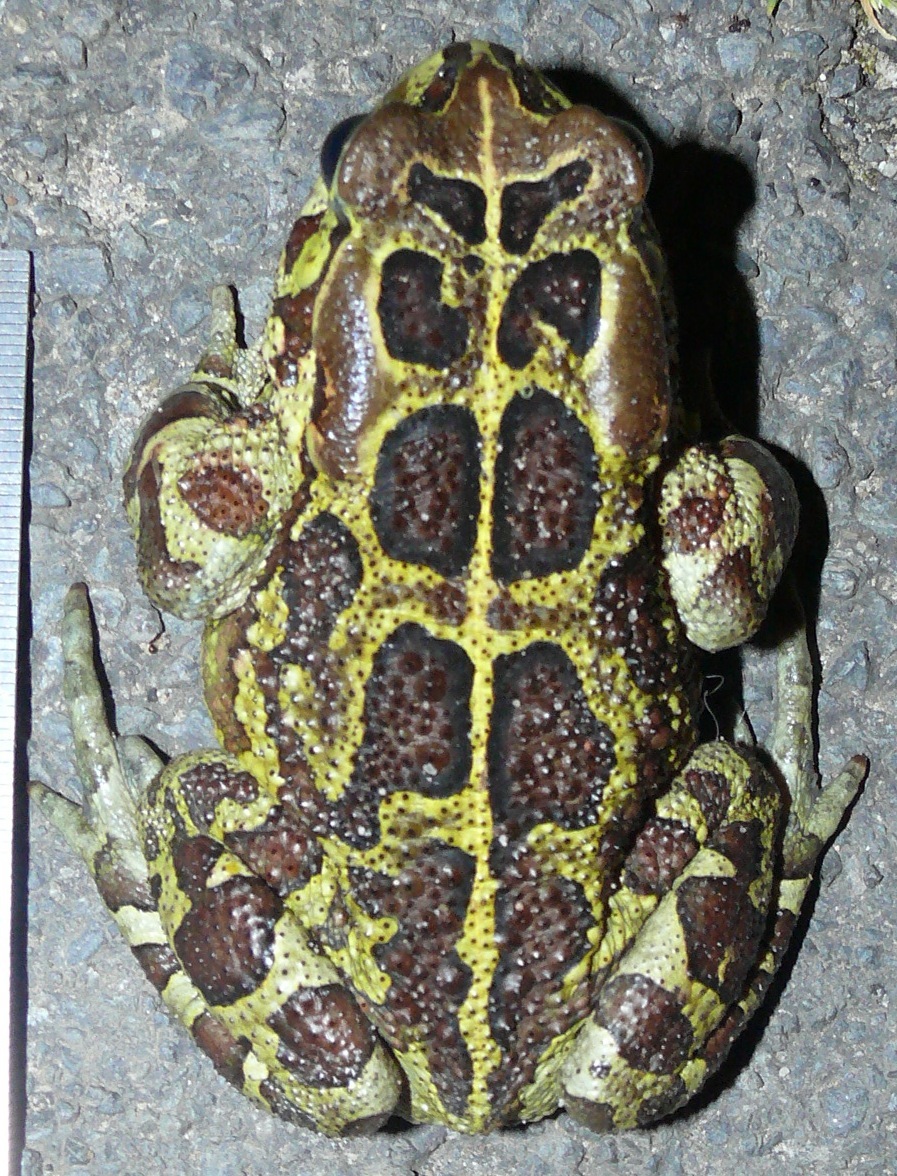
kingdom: Animalia
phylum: Chordata
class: Amphibia
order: Anura
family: Bufonidae
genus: Sclerophrys
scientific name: Sclerophrys pantherina
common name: Panther toad
